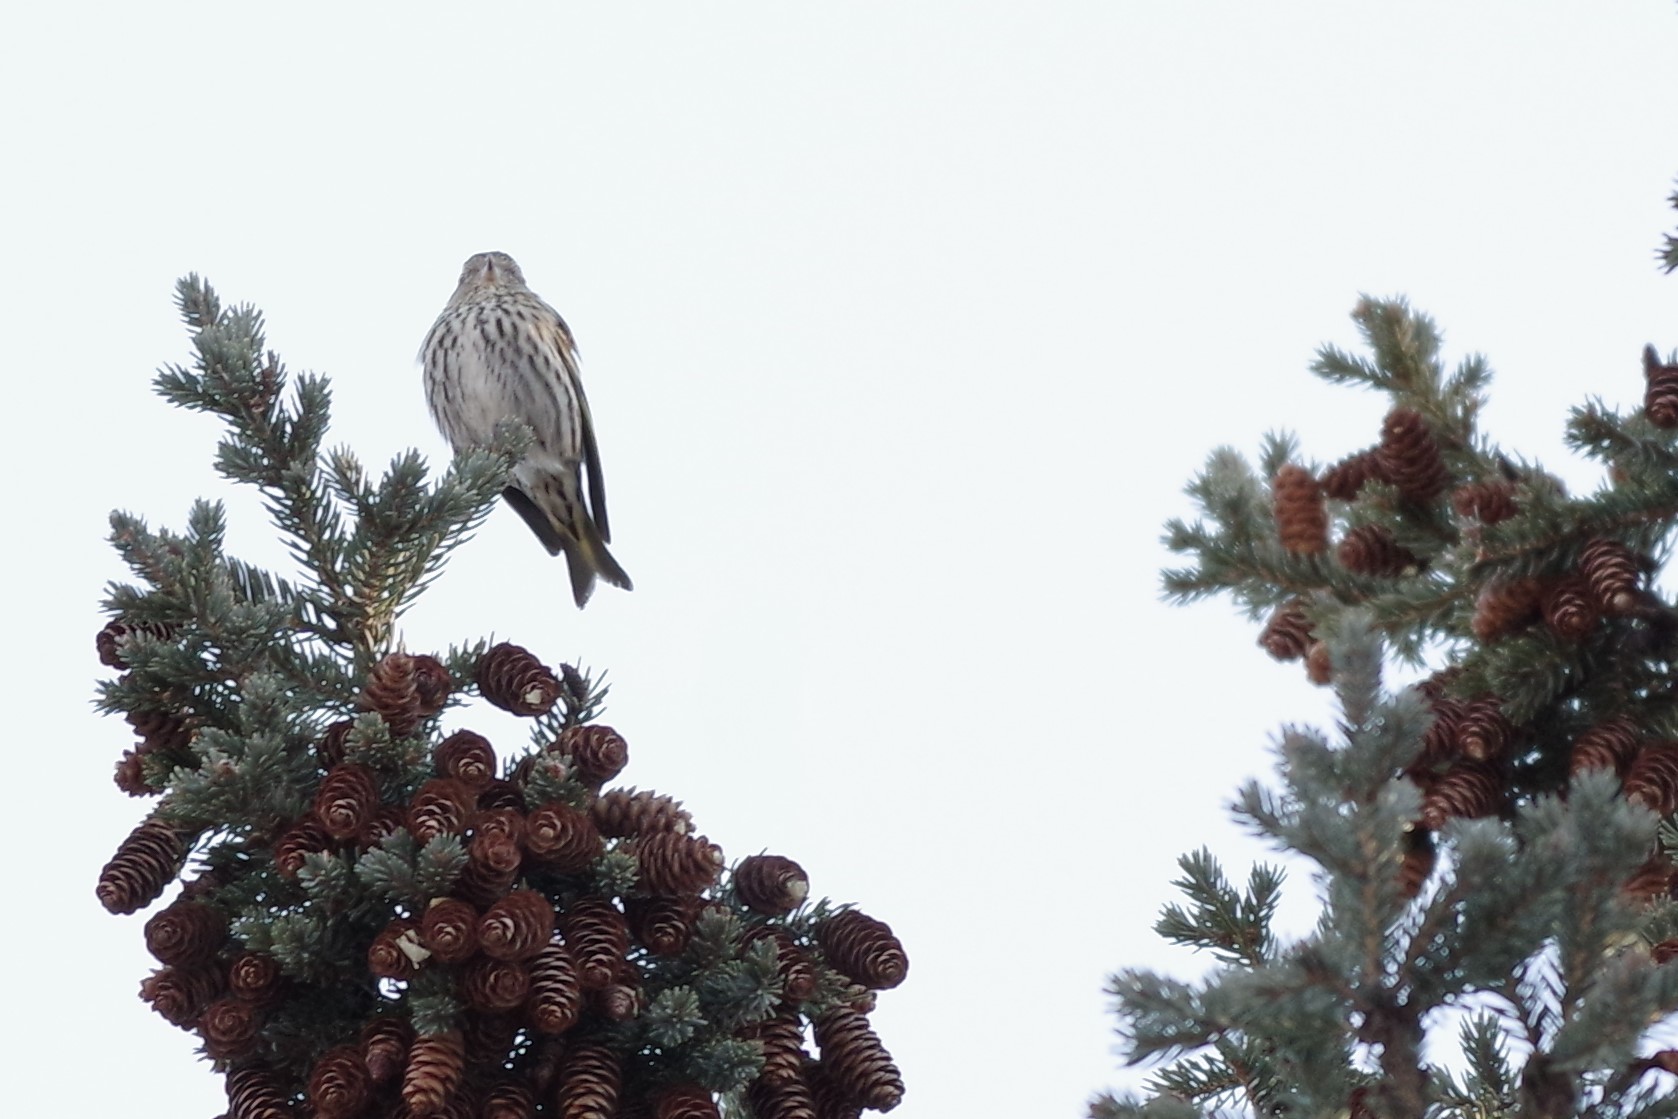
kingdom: Animalia
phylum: Chordata
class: Aves
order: Passeriformes
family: Fringillidae
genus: Spinus
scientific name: Spinus pinus
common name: Pine siskin
